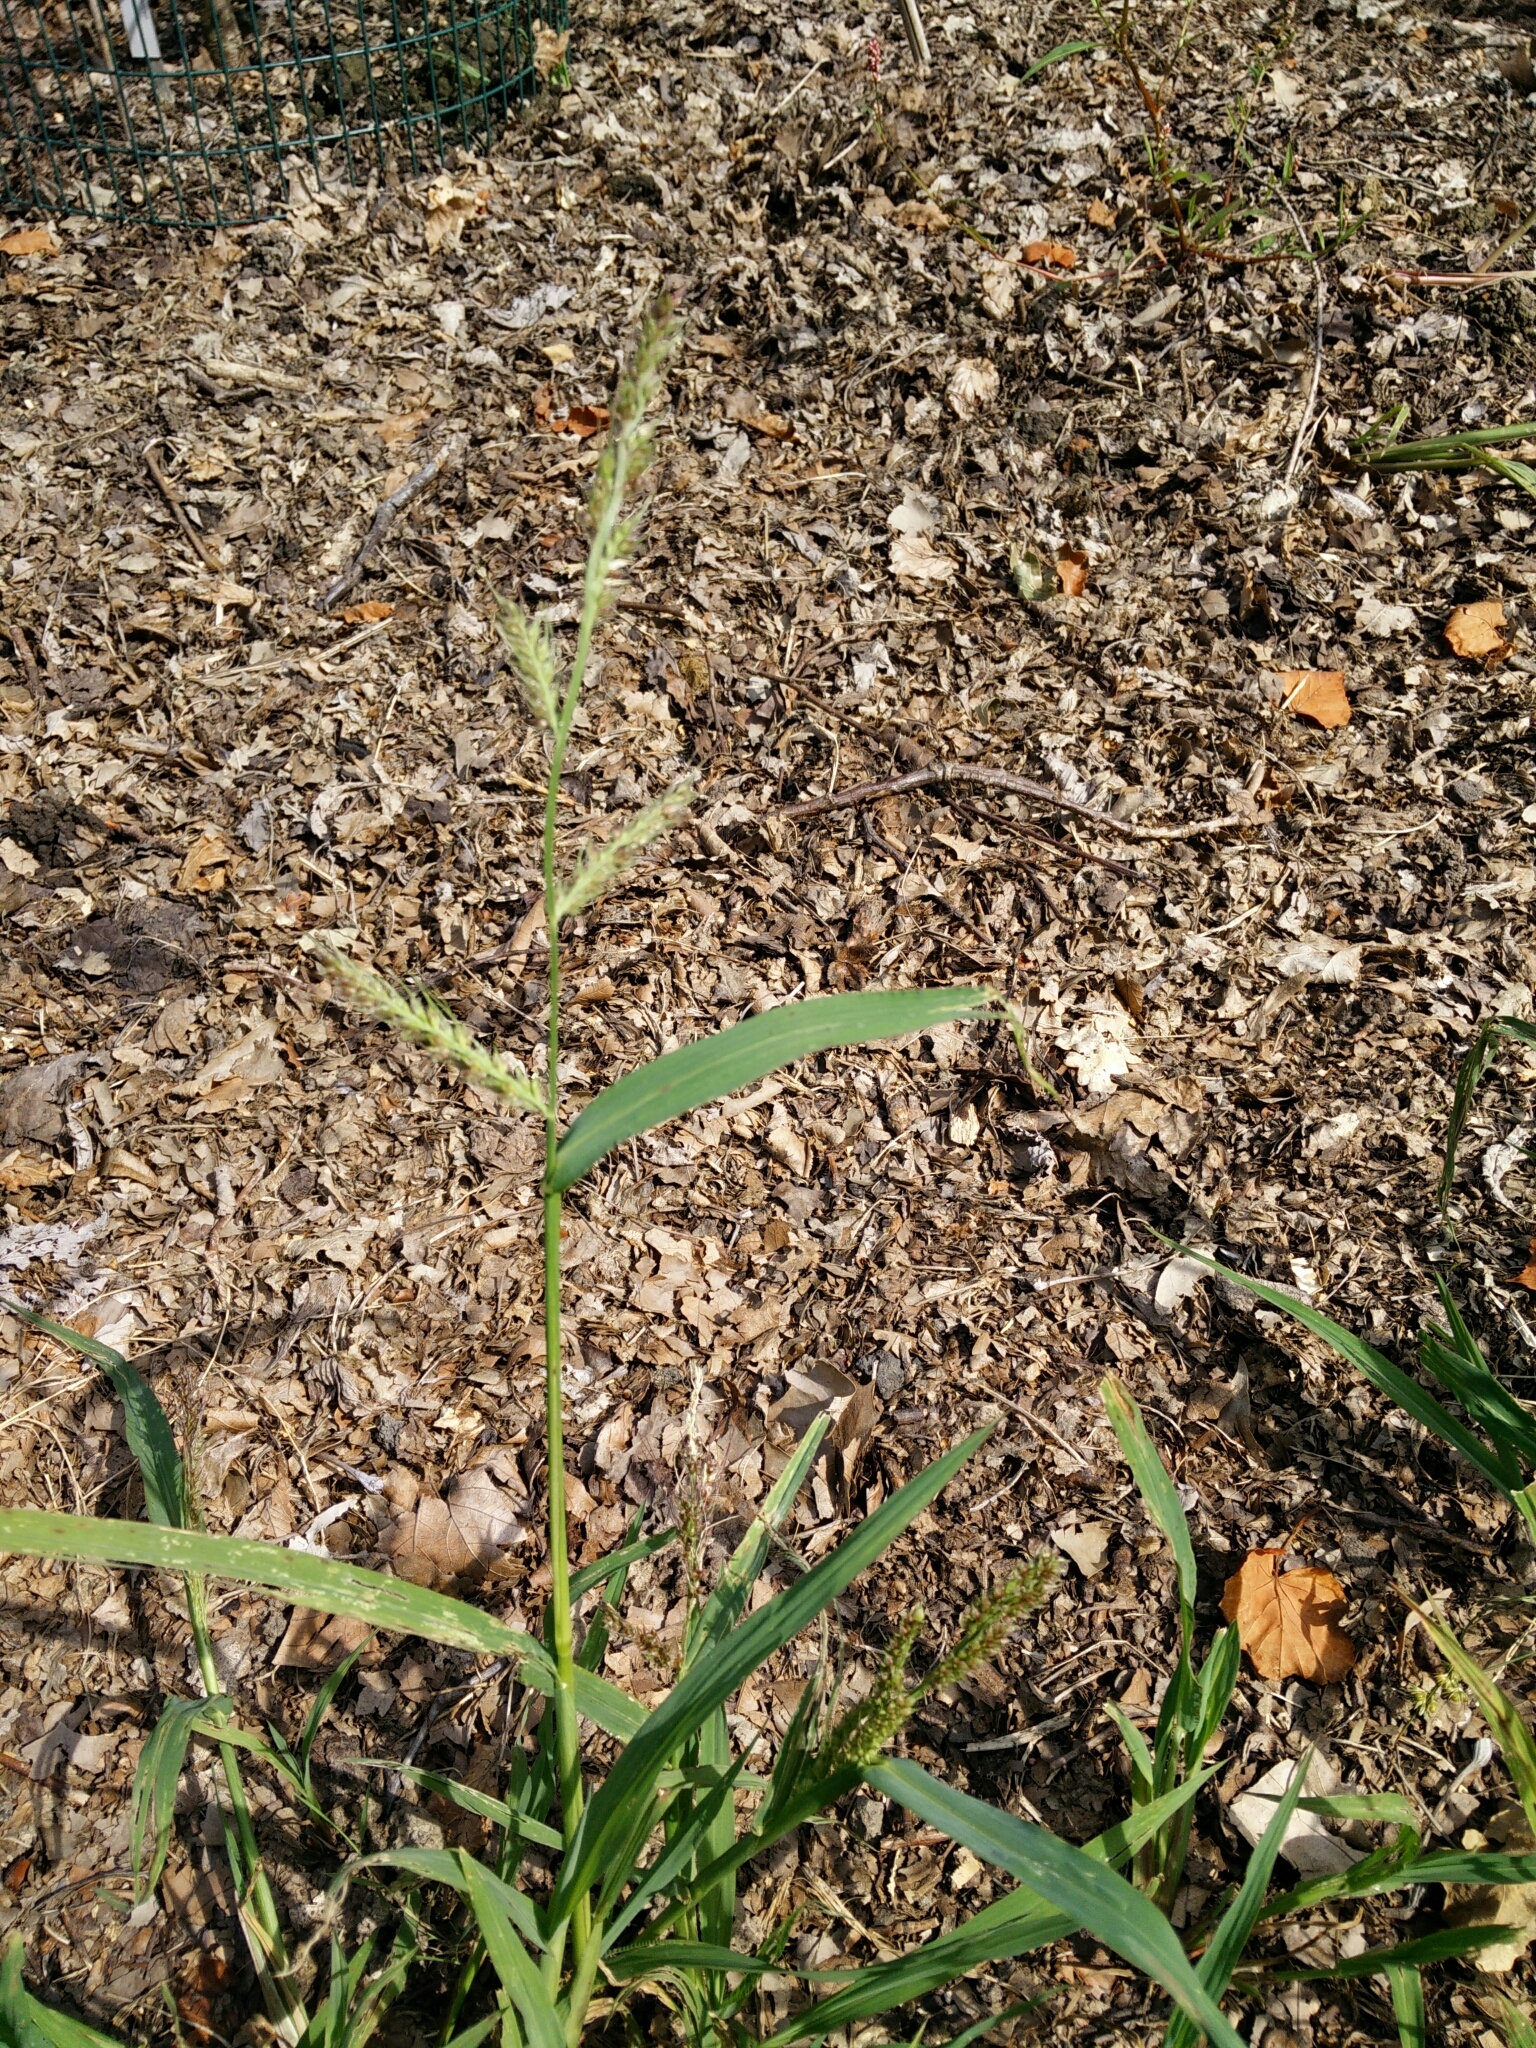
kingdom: Plantae
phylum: Tracheophyta
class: Liliopsida
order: Poales
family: Poaceae
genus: Echinochloa
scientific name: Echinochloa crus-galli
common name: Cockspur
